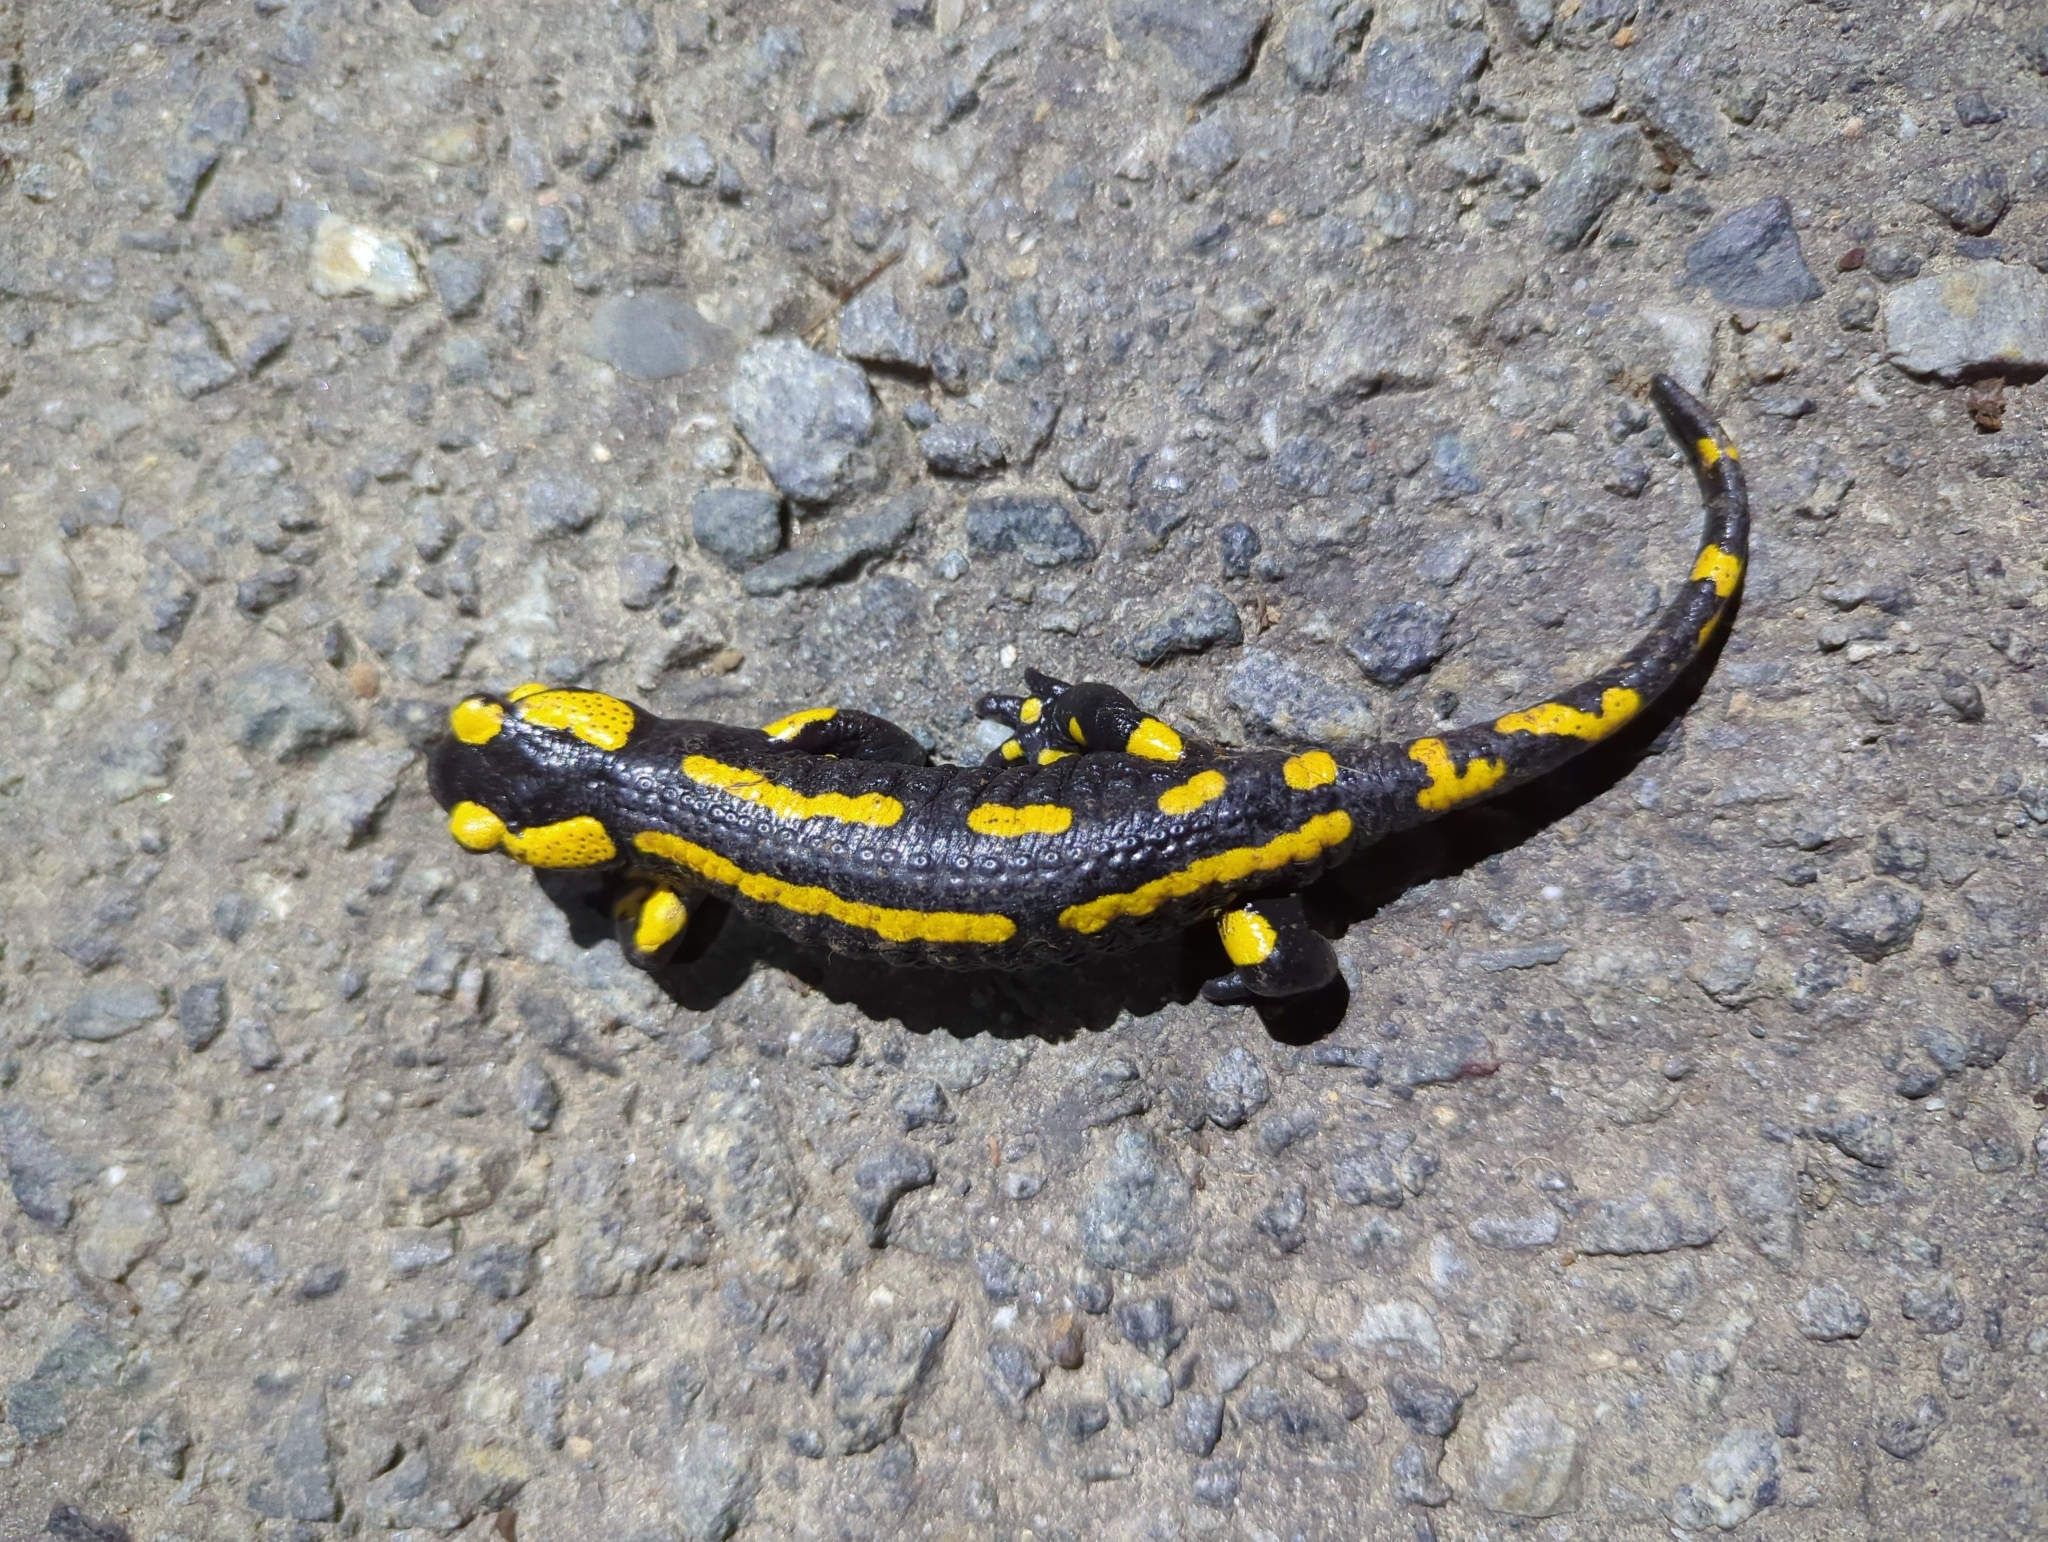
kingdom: Animalia
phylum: Chordata
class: Amphibia
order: Caudata
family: Salamandridae
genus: Salamandra
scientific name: Salamandra salamandra
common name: Fire salamander
